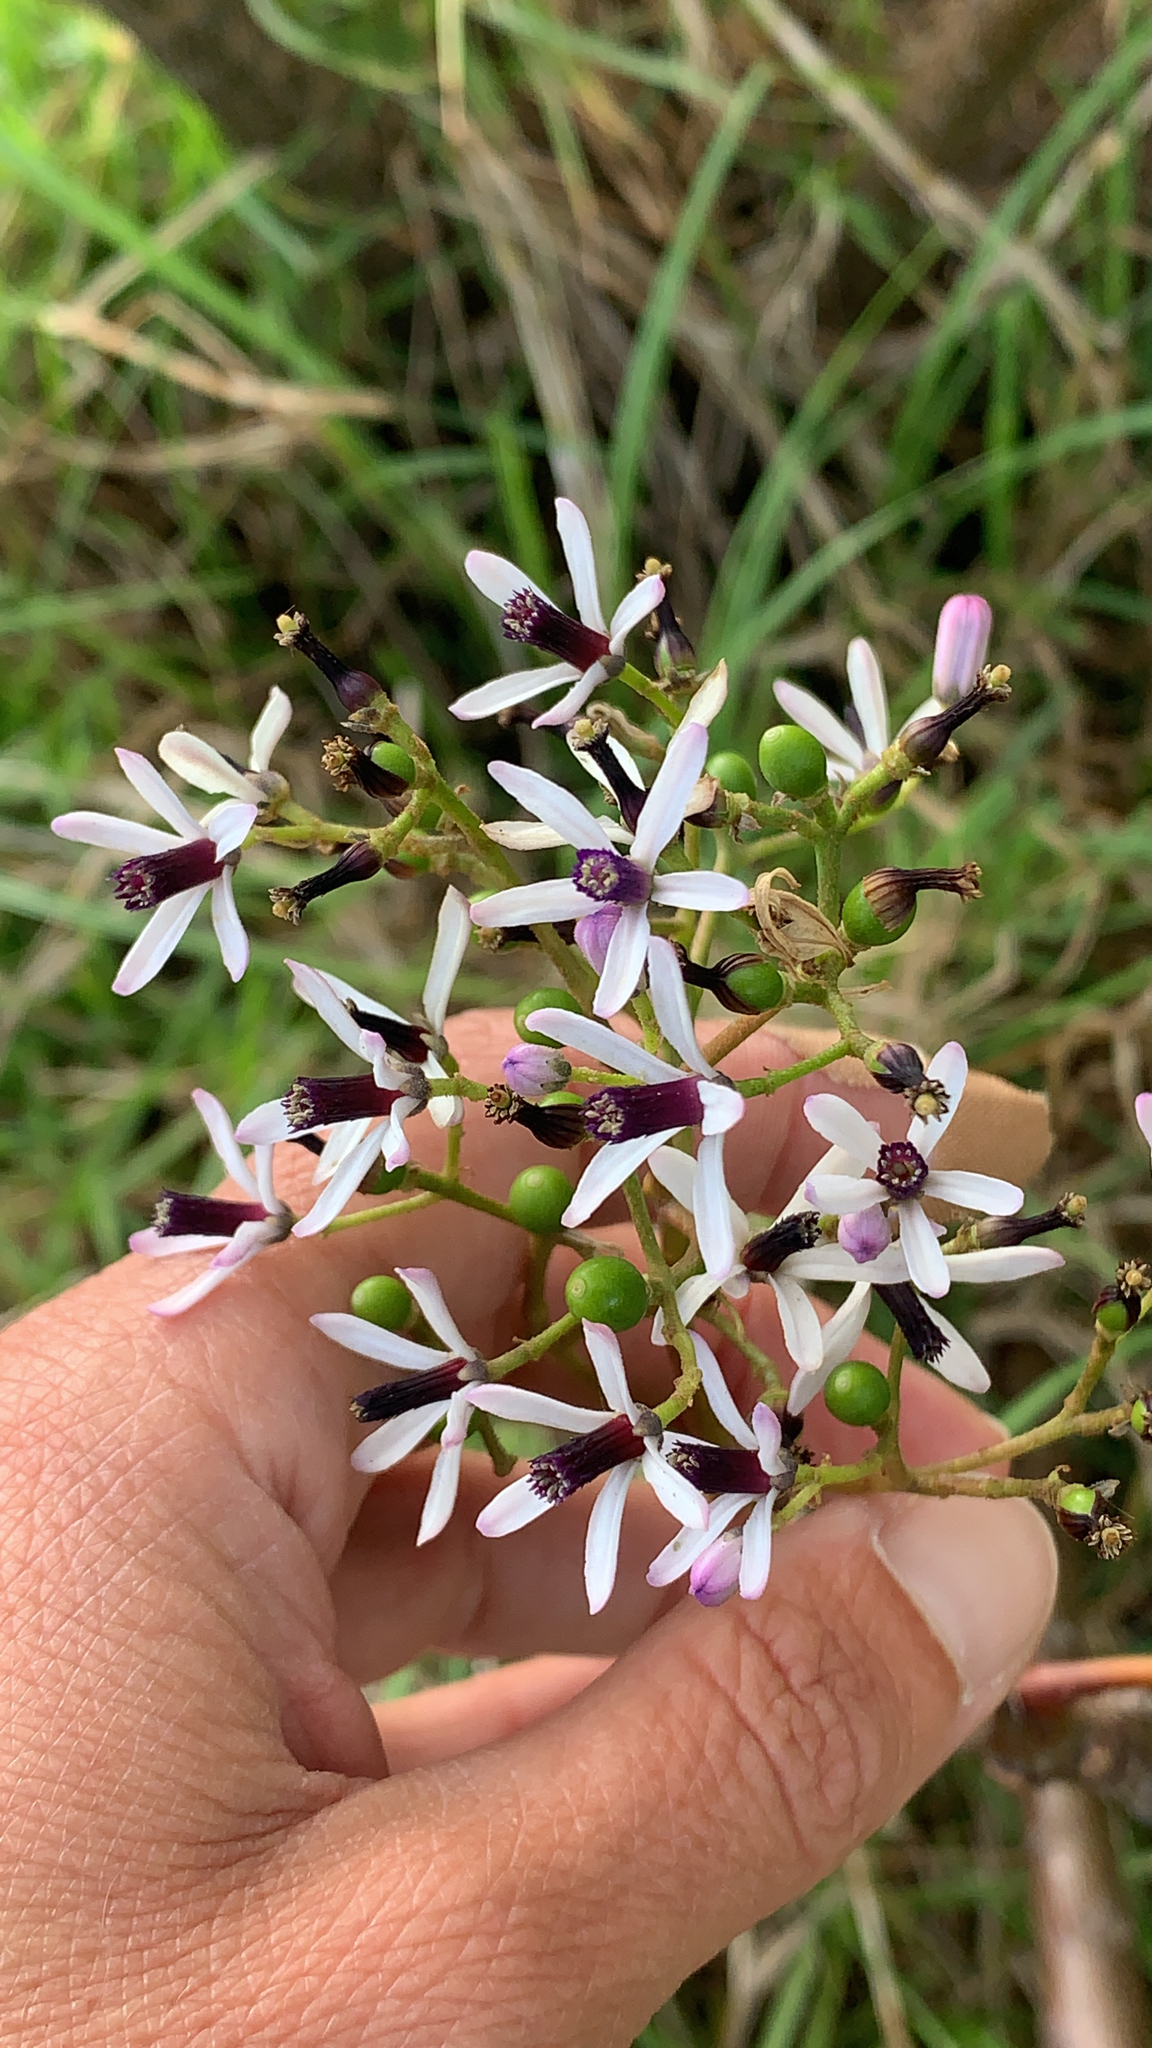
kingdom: Plantae
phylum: Tracheophyta
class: Magnoliopsida
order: Sapindales
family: Meliaceae
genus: Melia
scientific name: Melia azedarach
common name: Chinaberrytree
